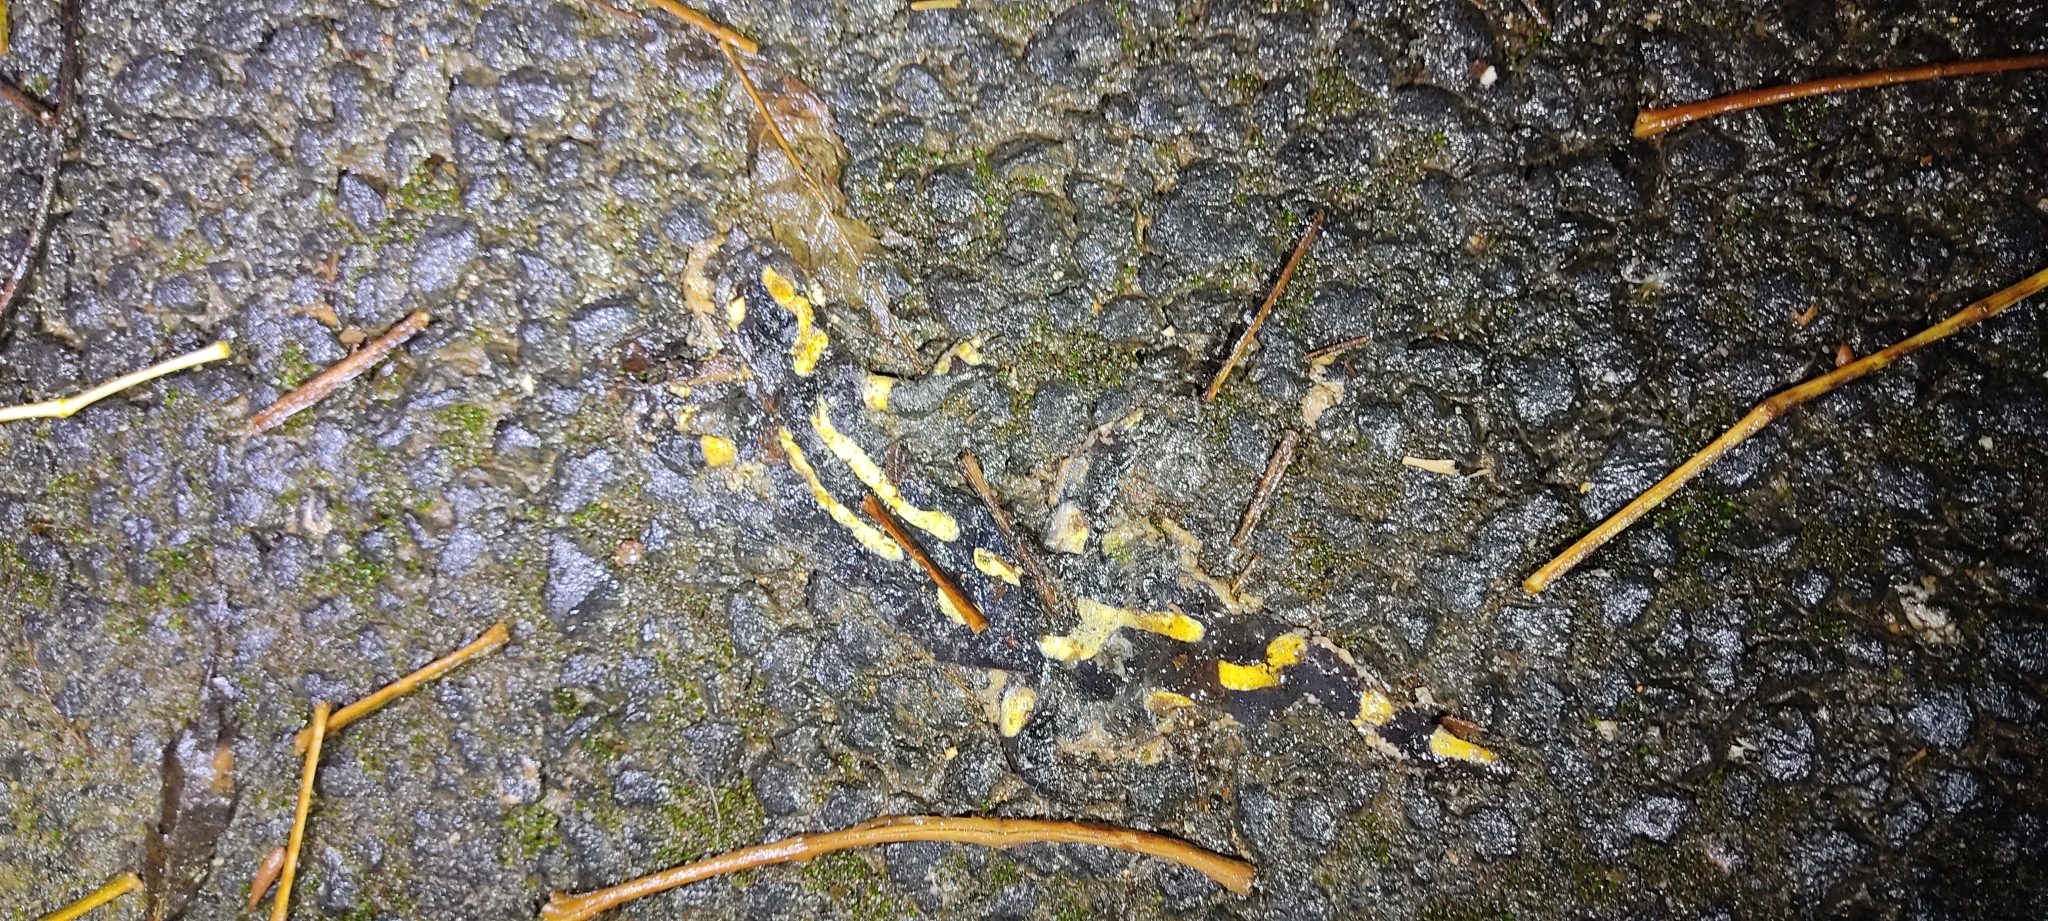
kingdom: Animalia
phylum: Chordata
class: Amphibia
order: Caudata
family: Salamandridae
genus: Salamandra
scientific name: Salamandra salamandra
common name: Fire salamander
